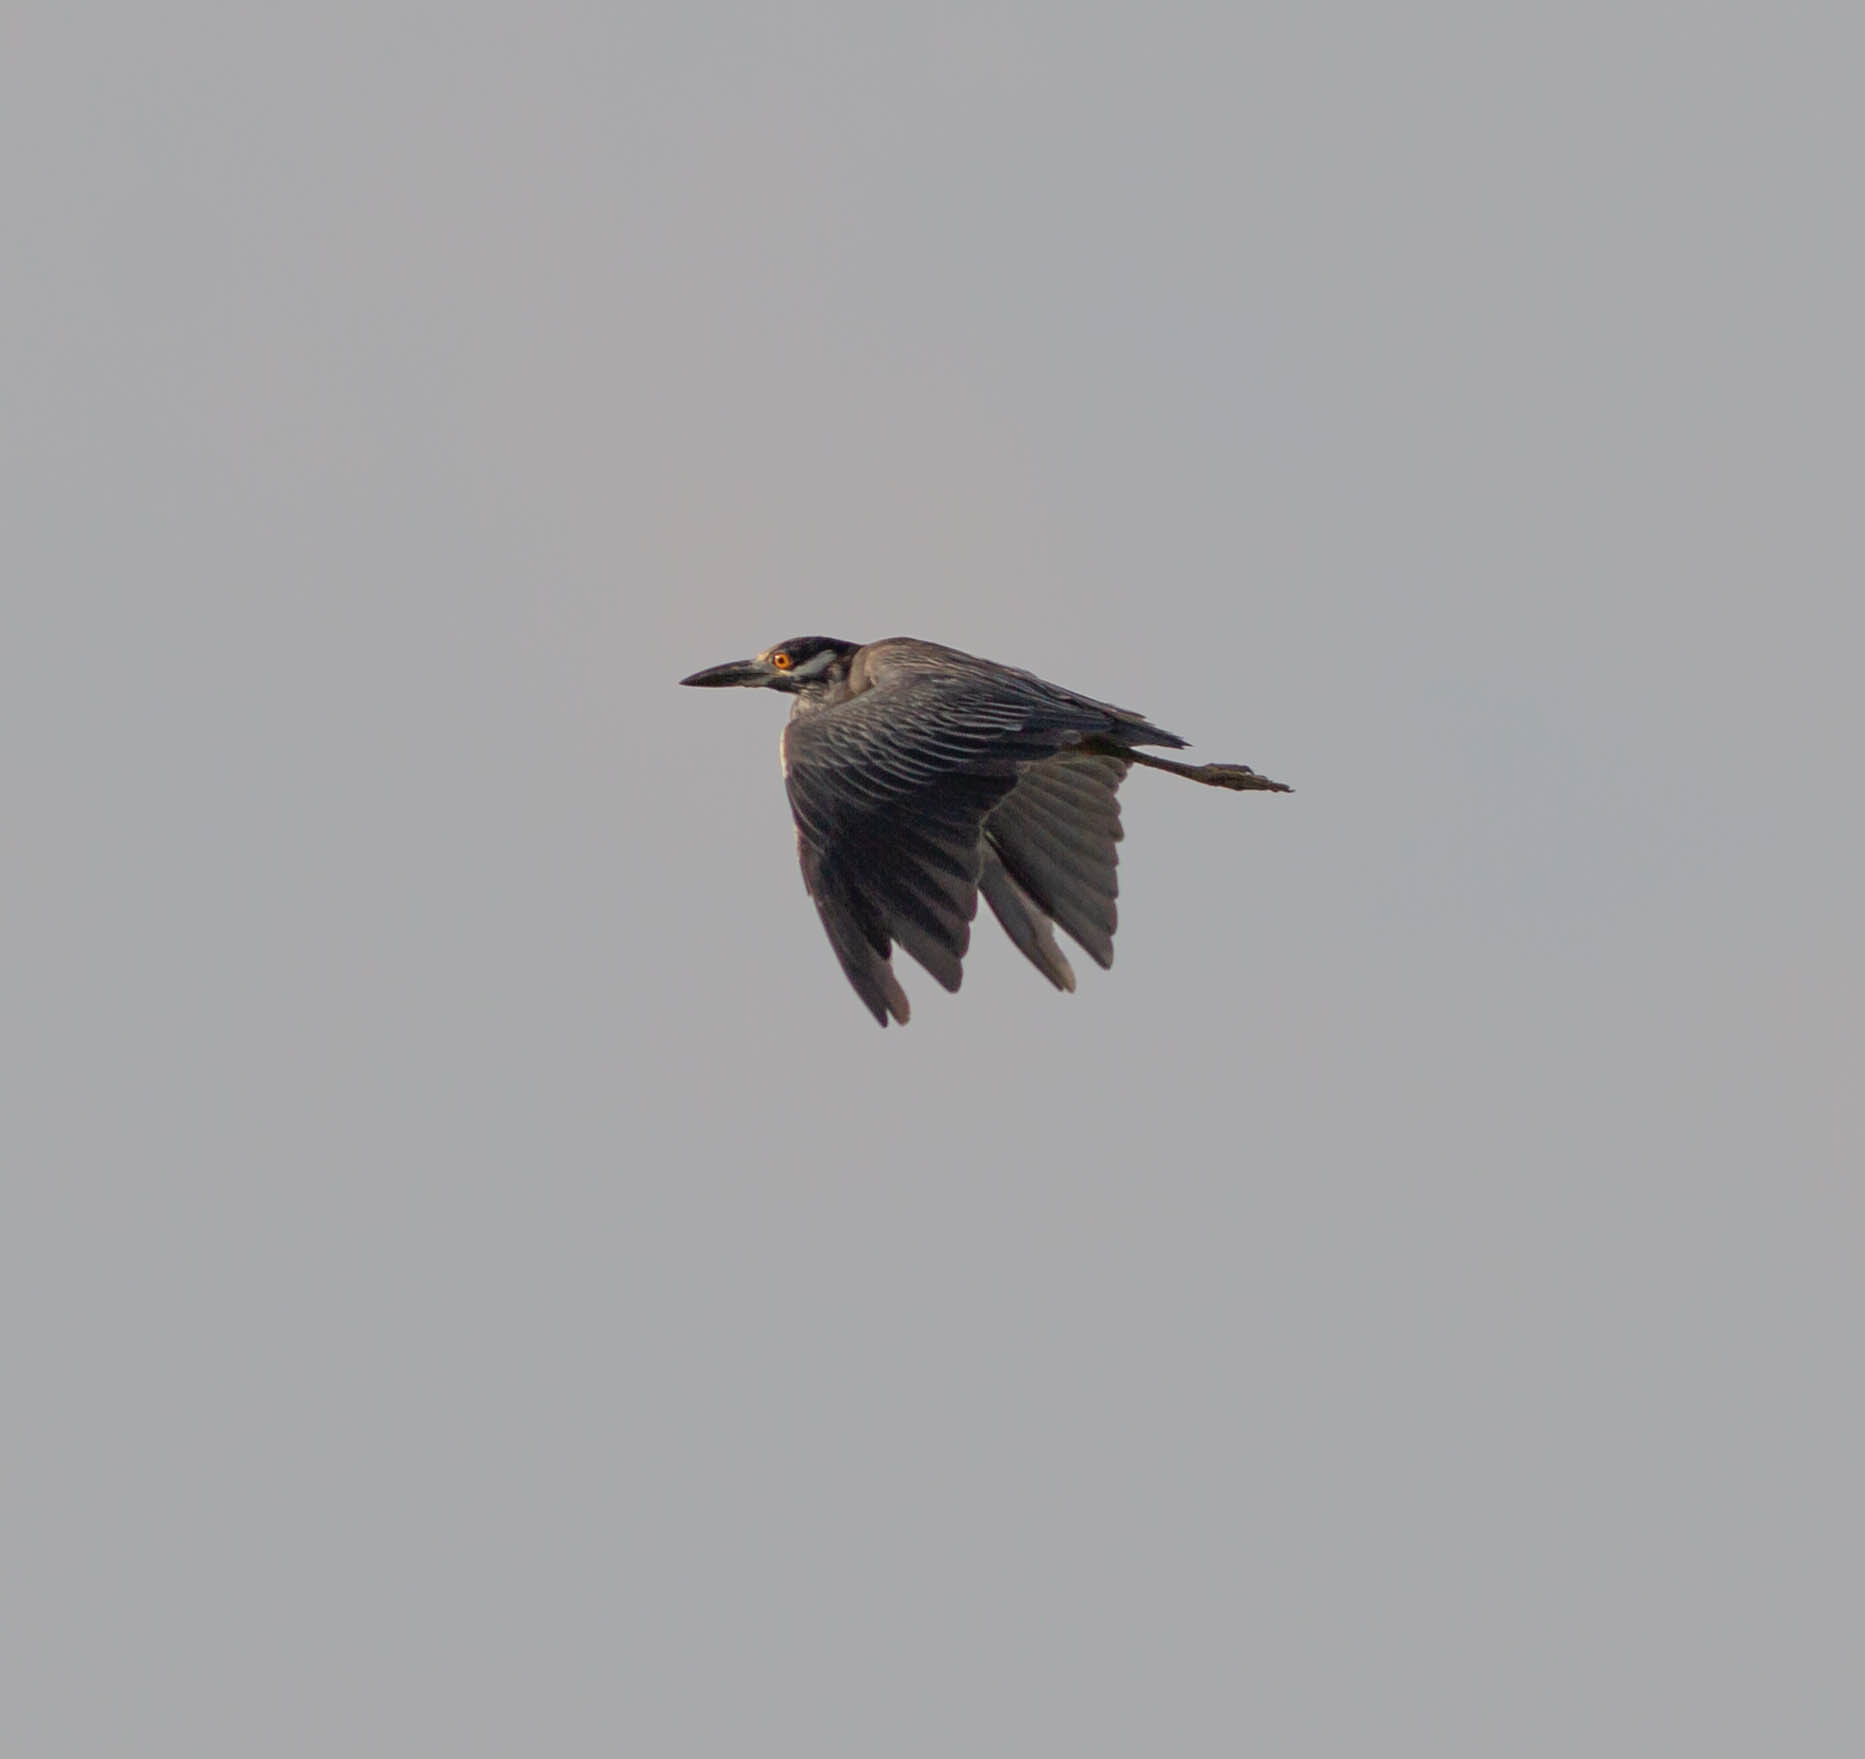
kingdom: Animalia
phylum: Chordata
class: Aves
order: Pelecaniformes
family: Ardeidae
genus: Nyctanassa
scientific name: Nyctanassa violacea
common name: Yellow-crowned night heron
